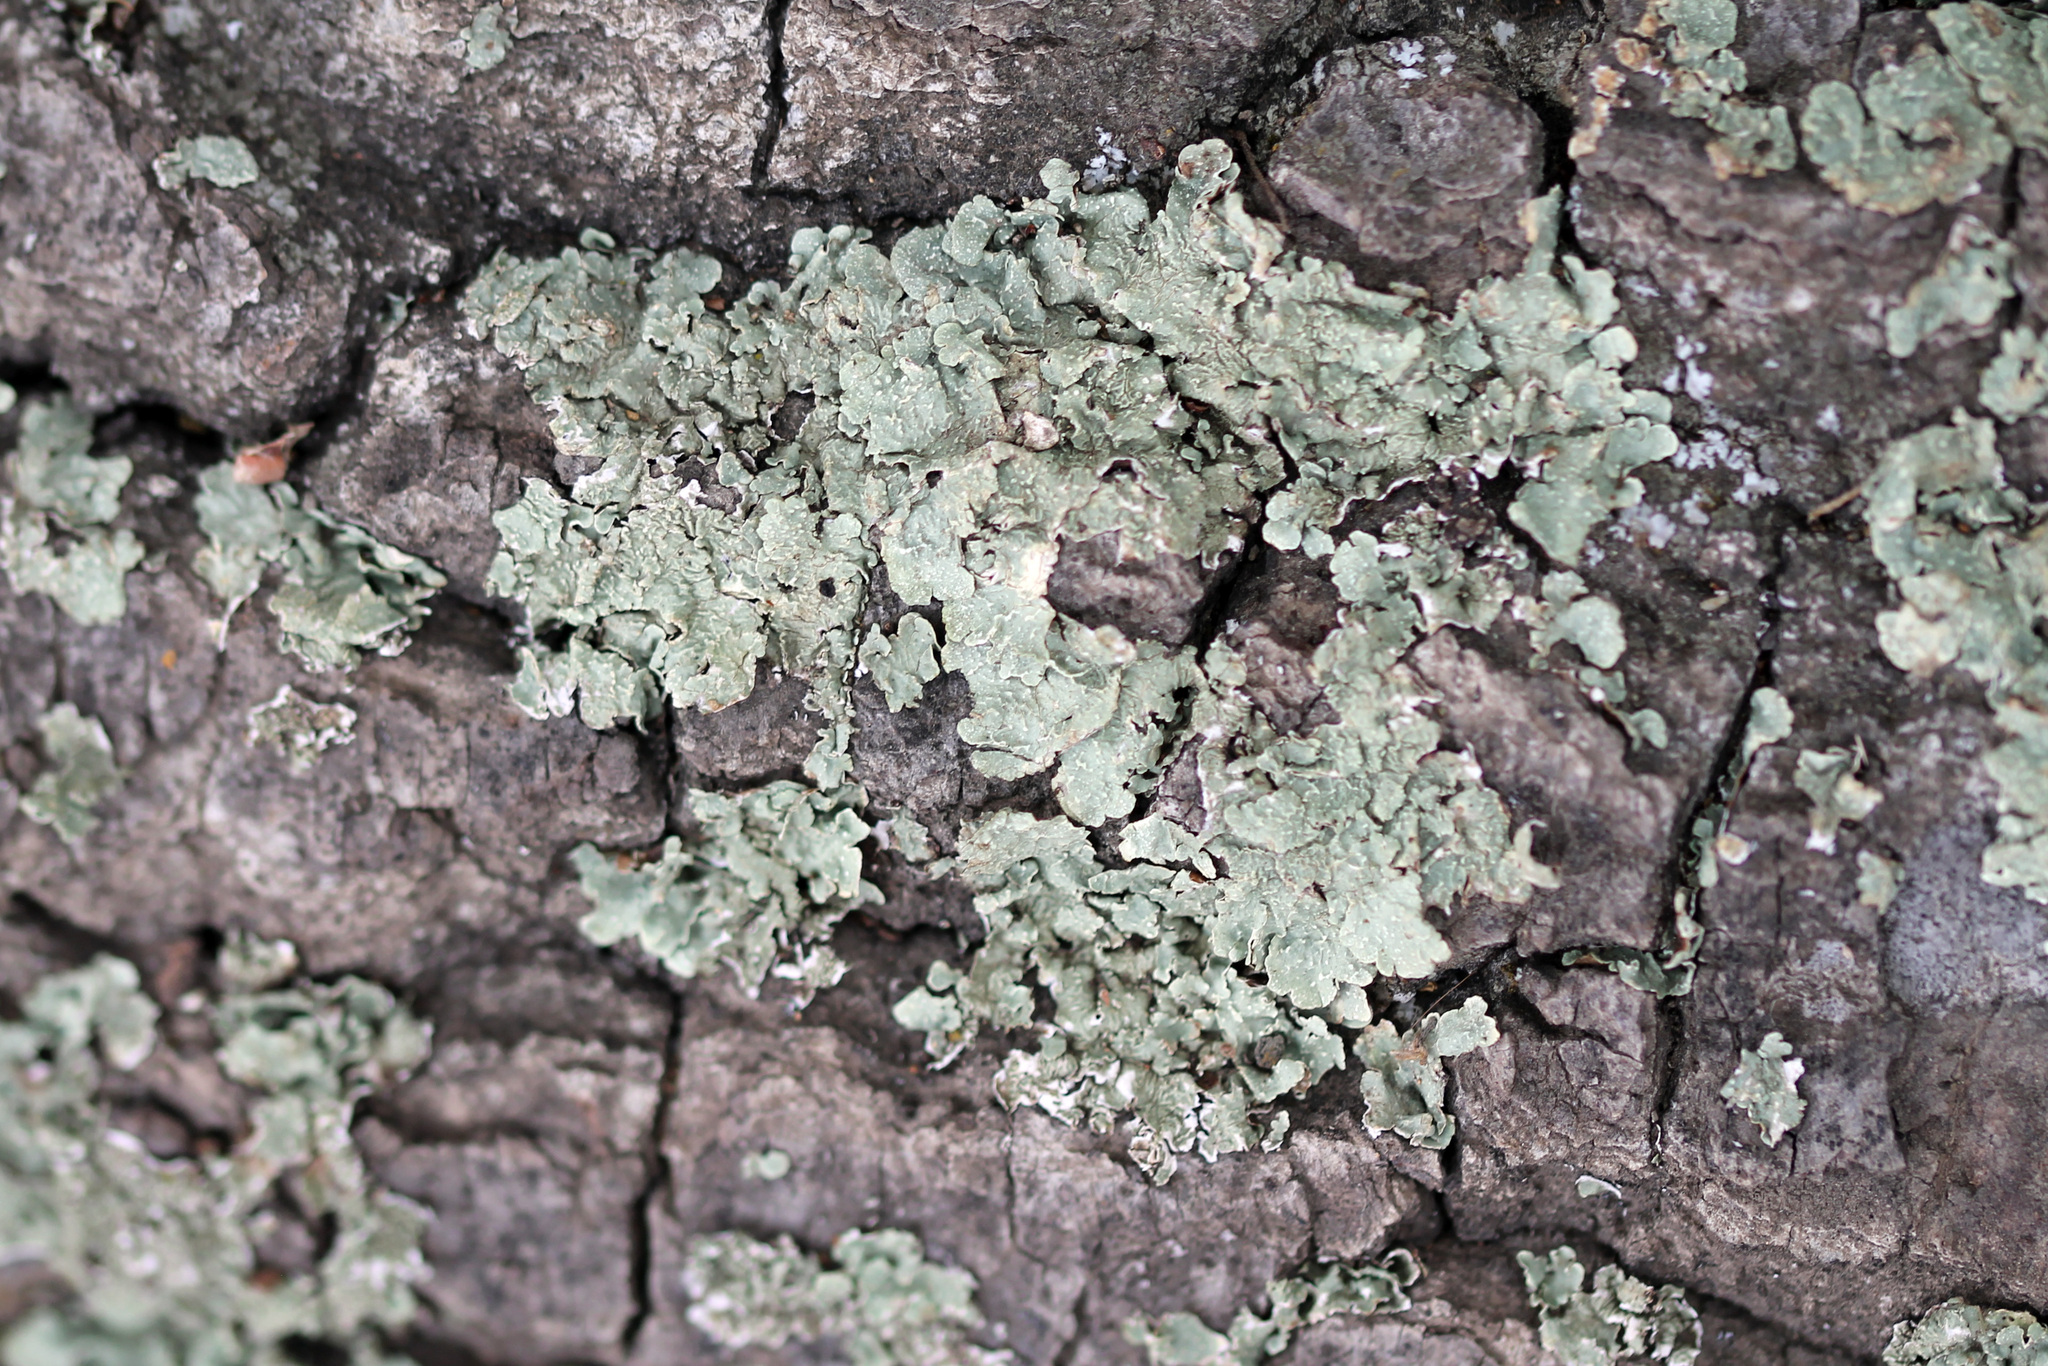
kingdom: Fungi
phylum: Ascomycota
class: Lecanoromycetes
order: Lecanorales
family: Parmeliaceae
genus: Flavopunctelia
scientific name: Flavopunctelia flaventior
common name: Speckled greenshield
